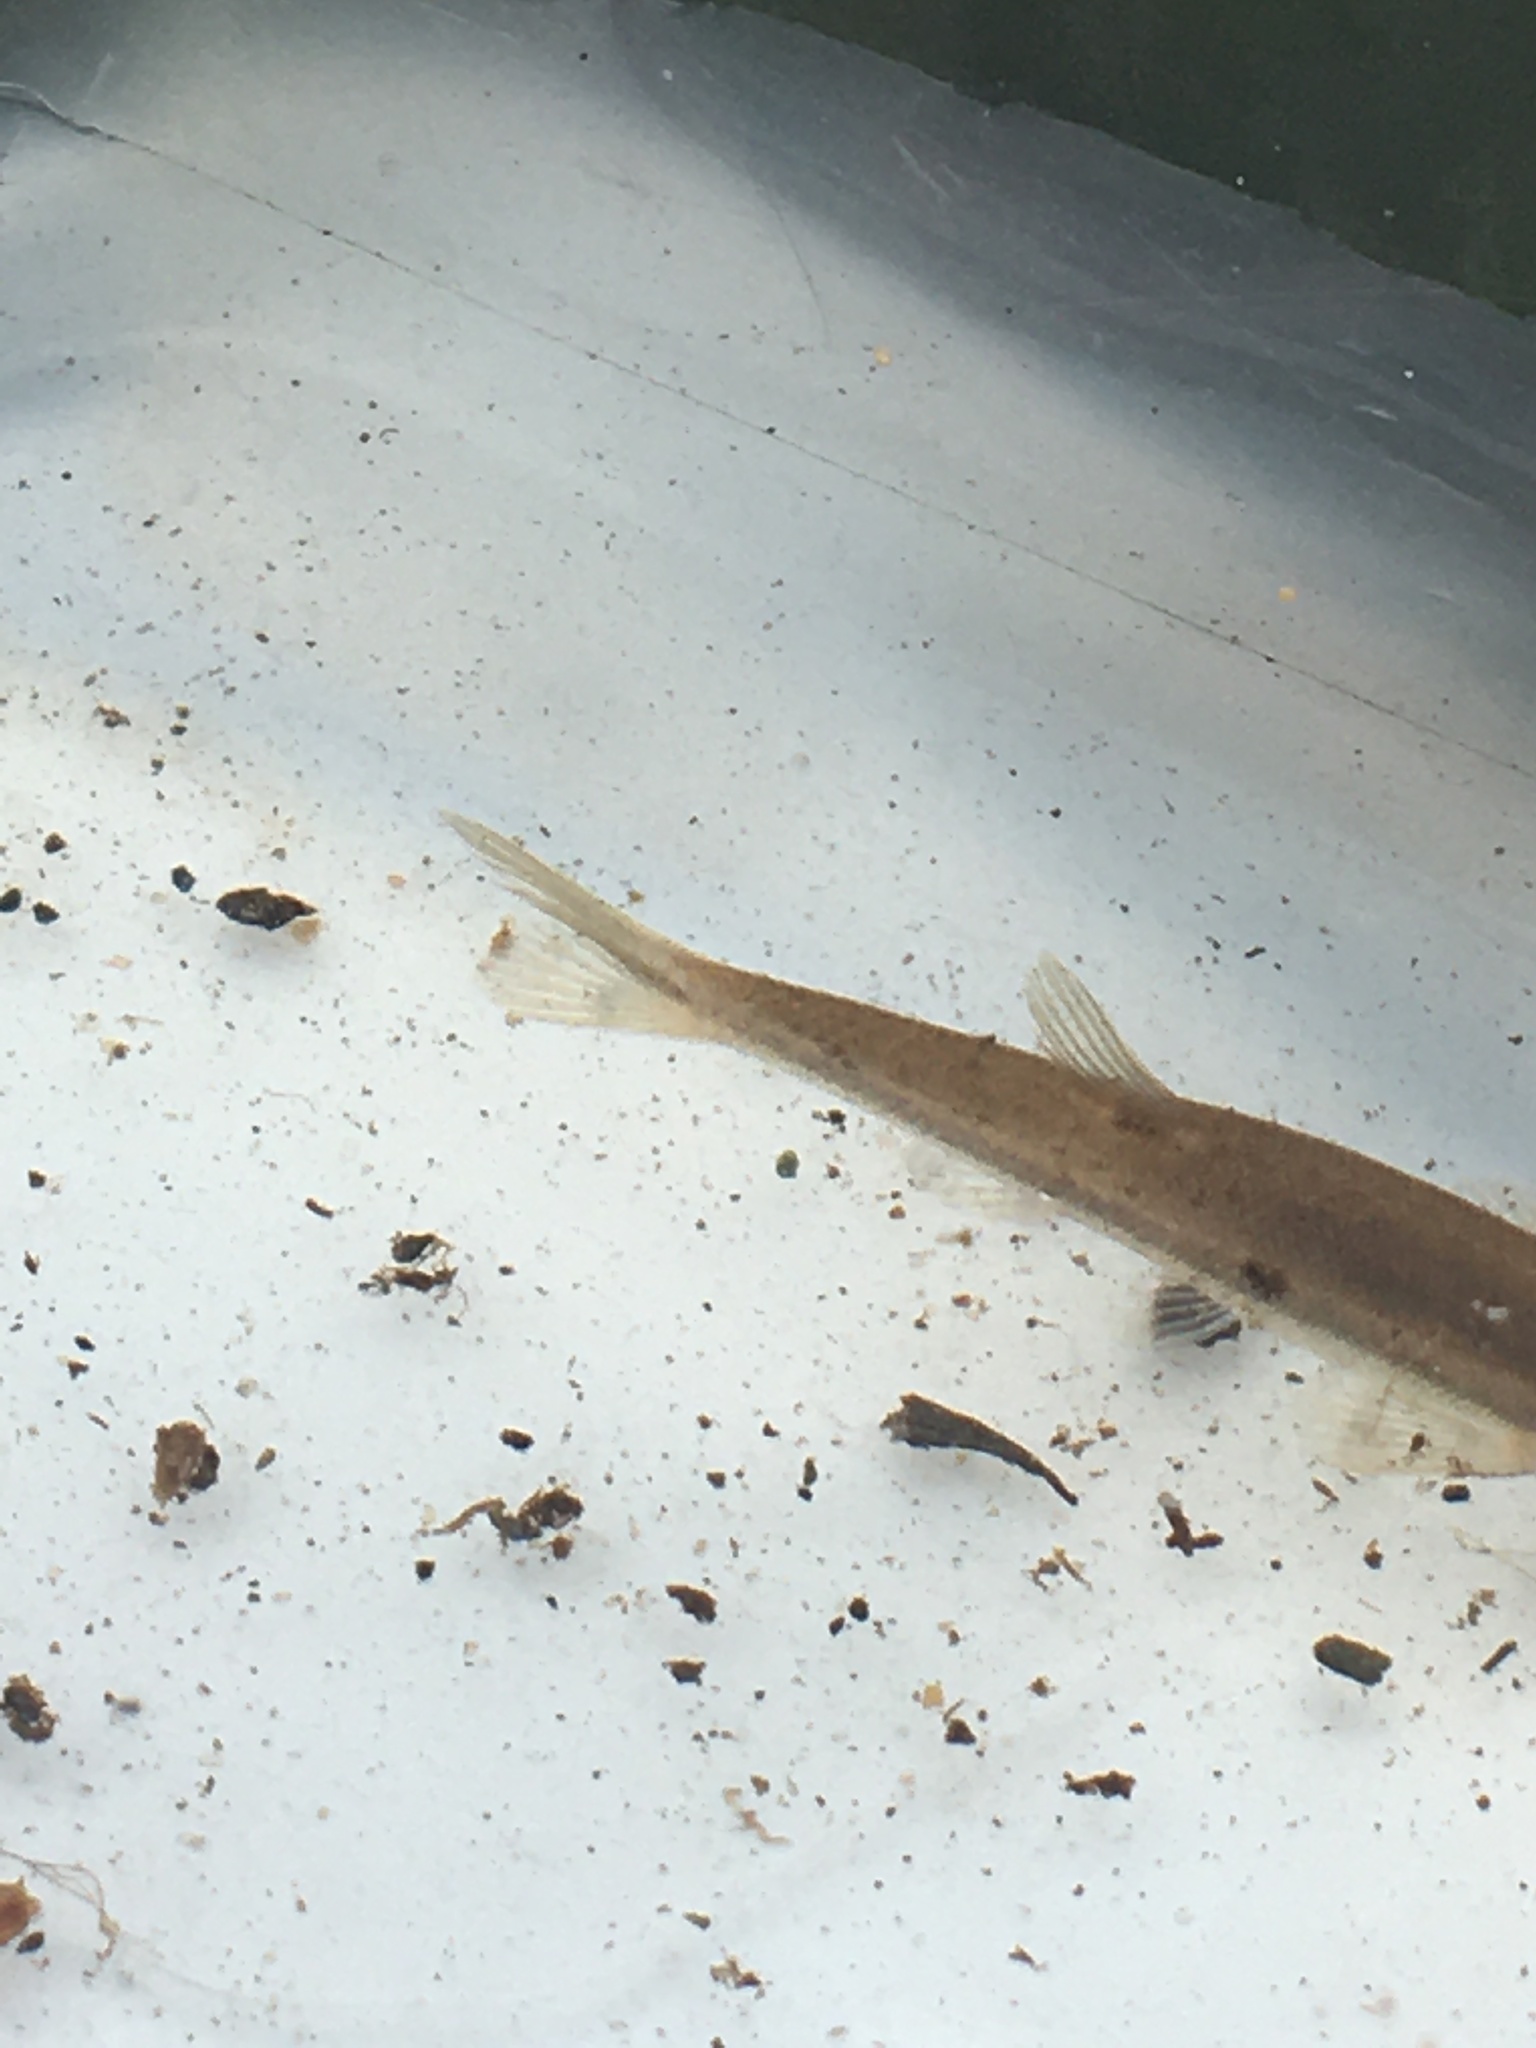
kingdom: Animalia
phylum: Chordata
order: Cypriniformes
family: Cyprinidae
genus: Rhinichthys
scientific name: Rhinichthys atratulus
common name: Eastern blacknose dace
